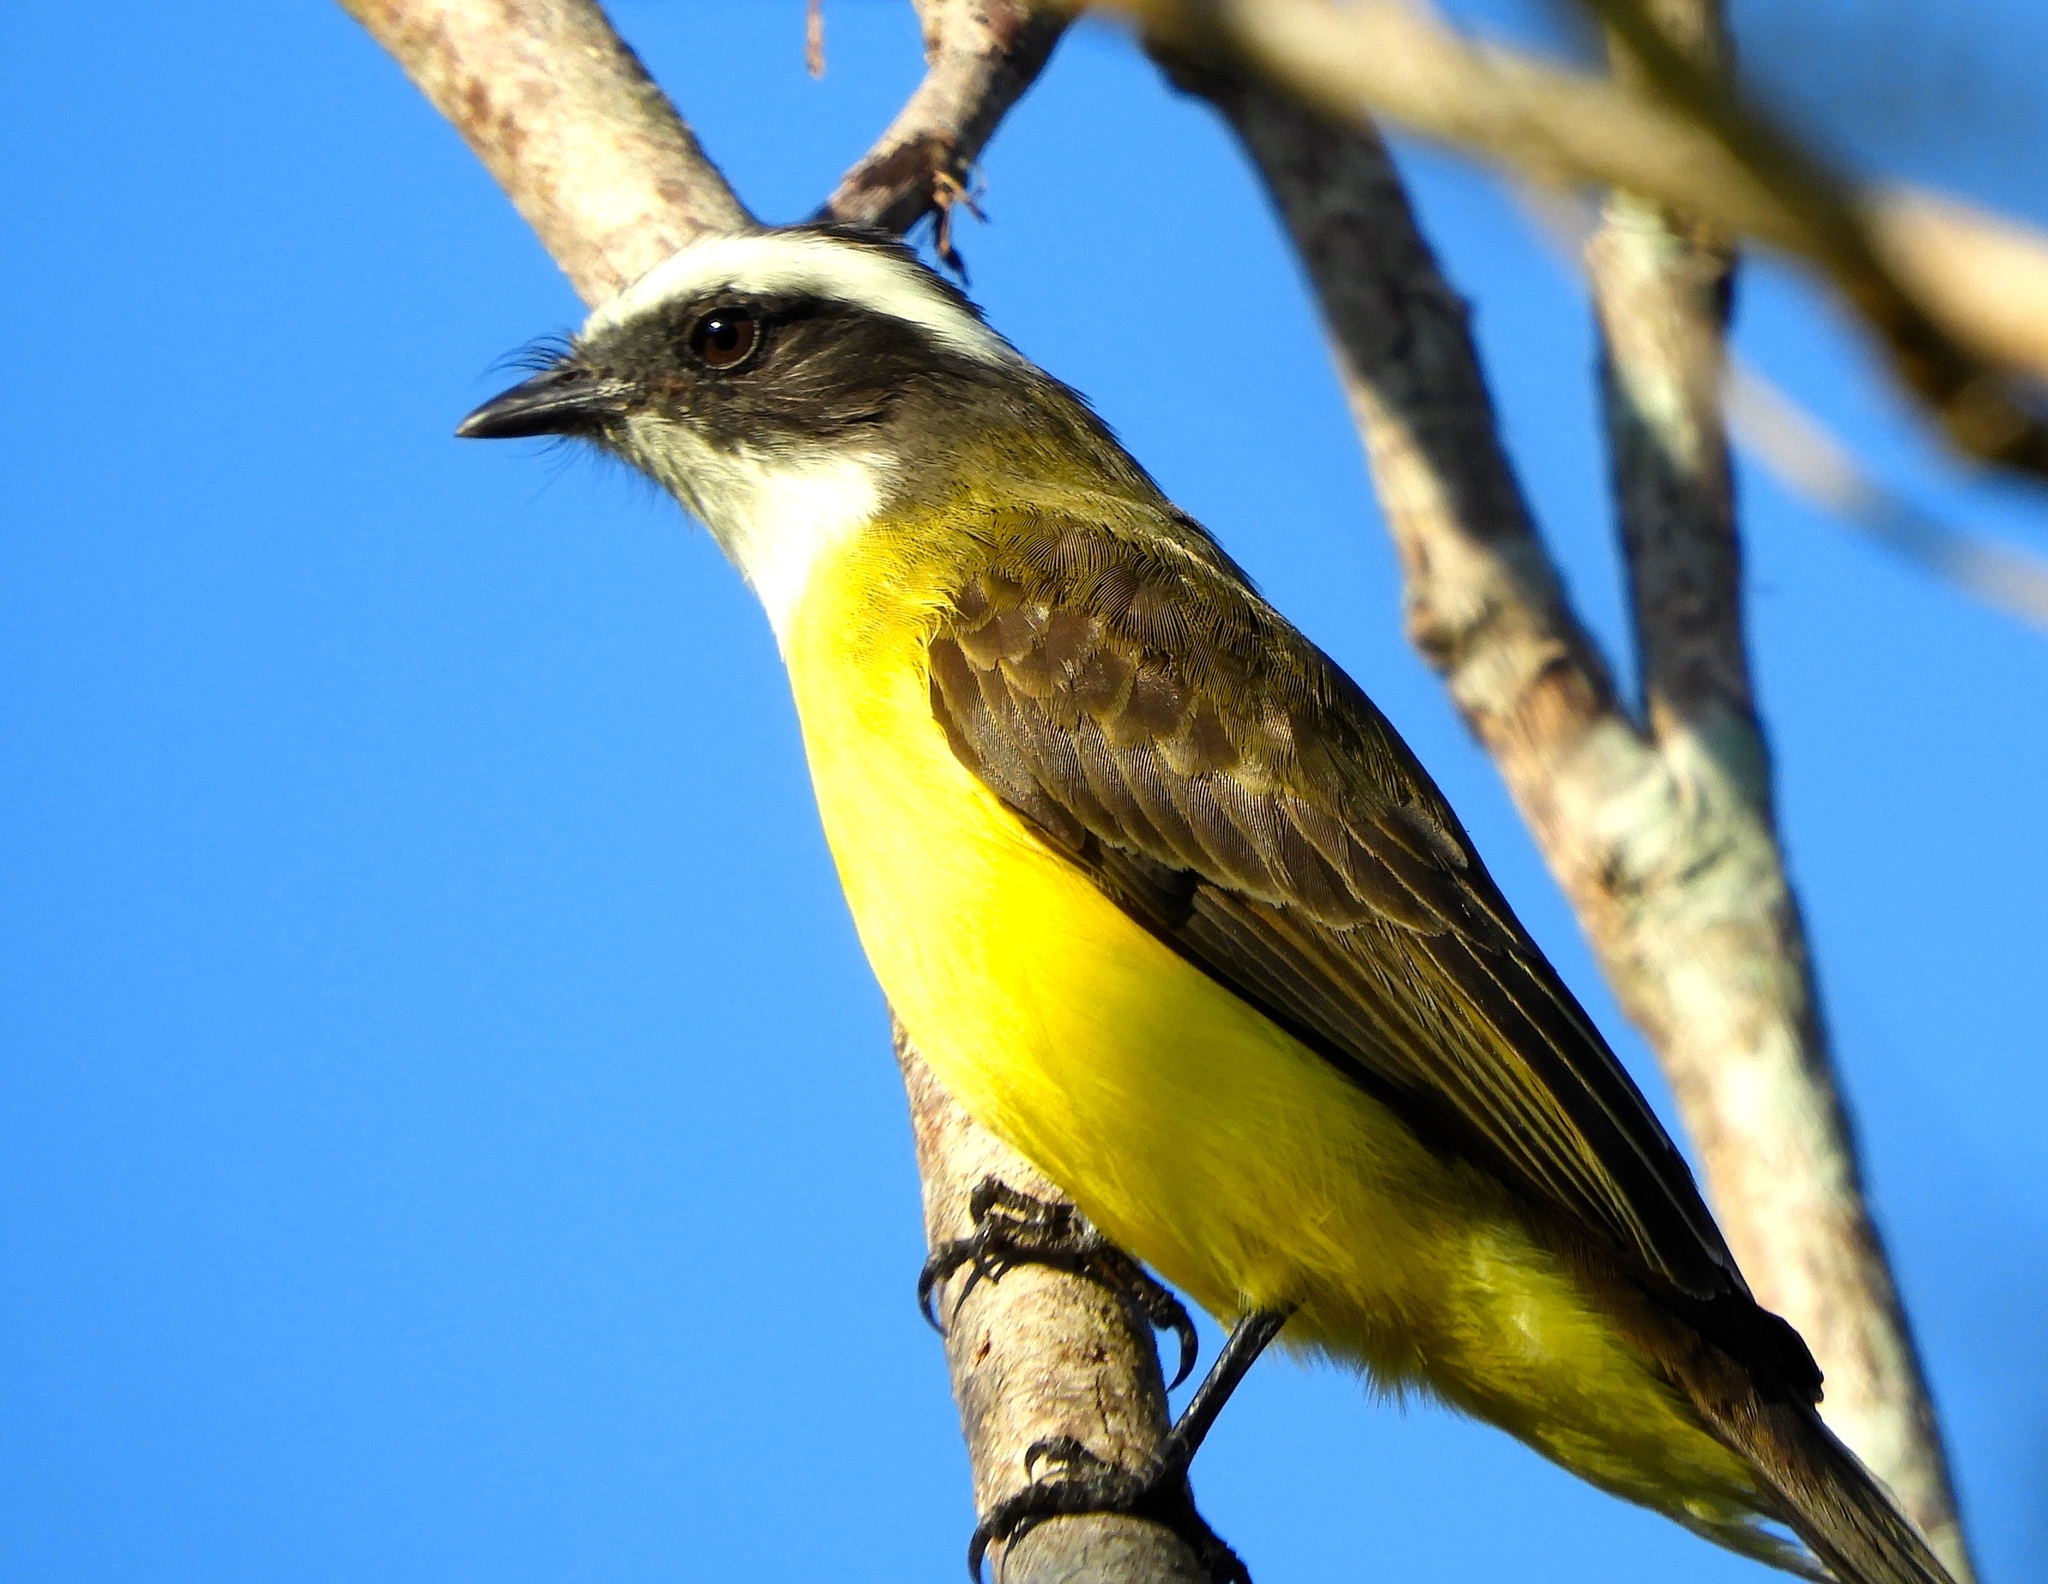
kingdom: Animalia
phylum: Chordata
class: Aves
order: Passeriformes
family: Tyrannidae
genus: Myiozetetes
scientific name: Myiozetetes similis
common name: Social flycatcher
